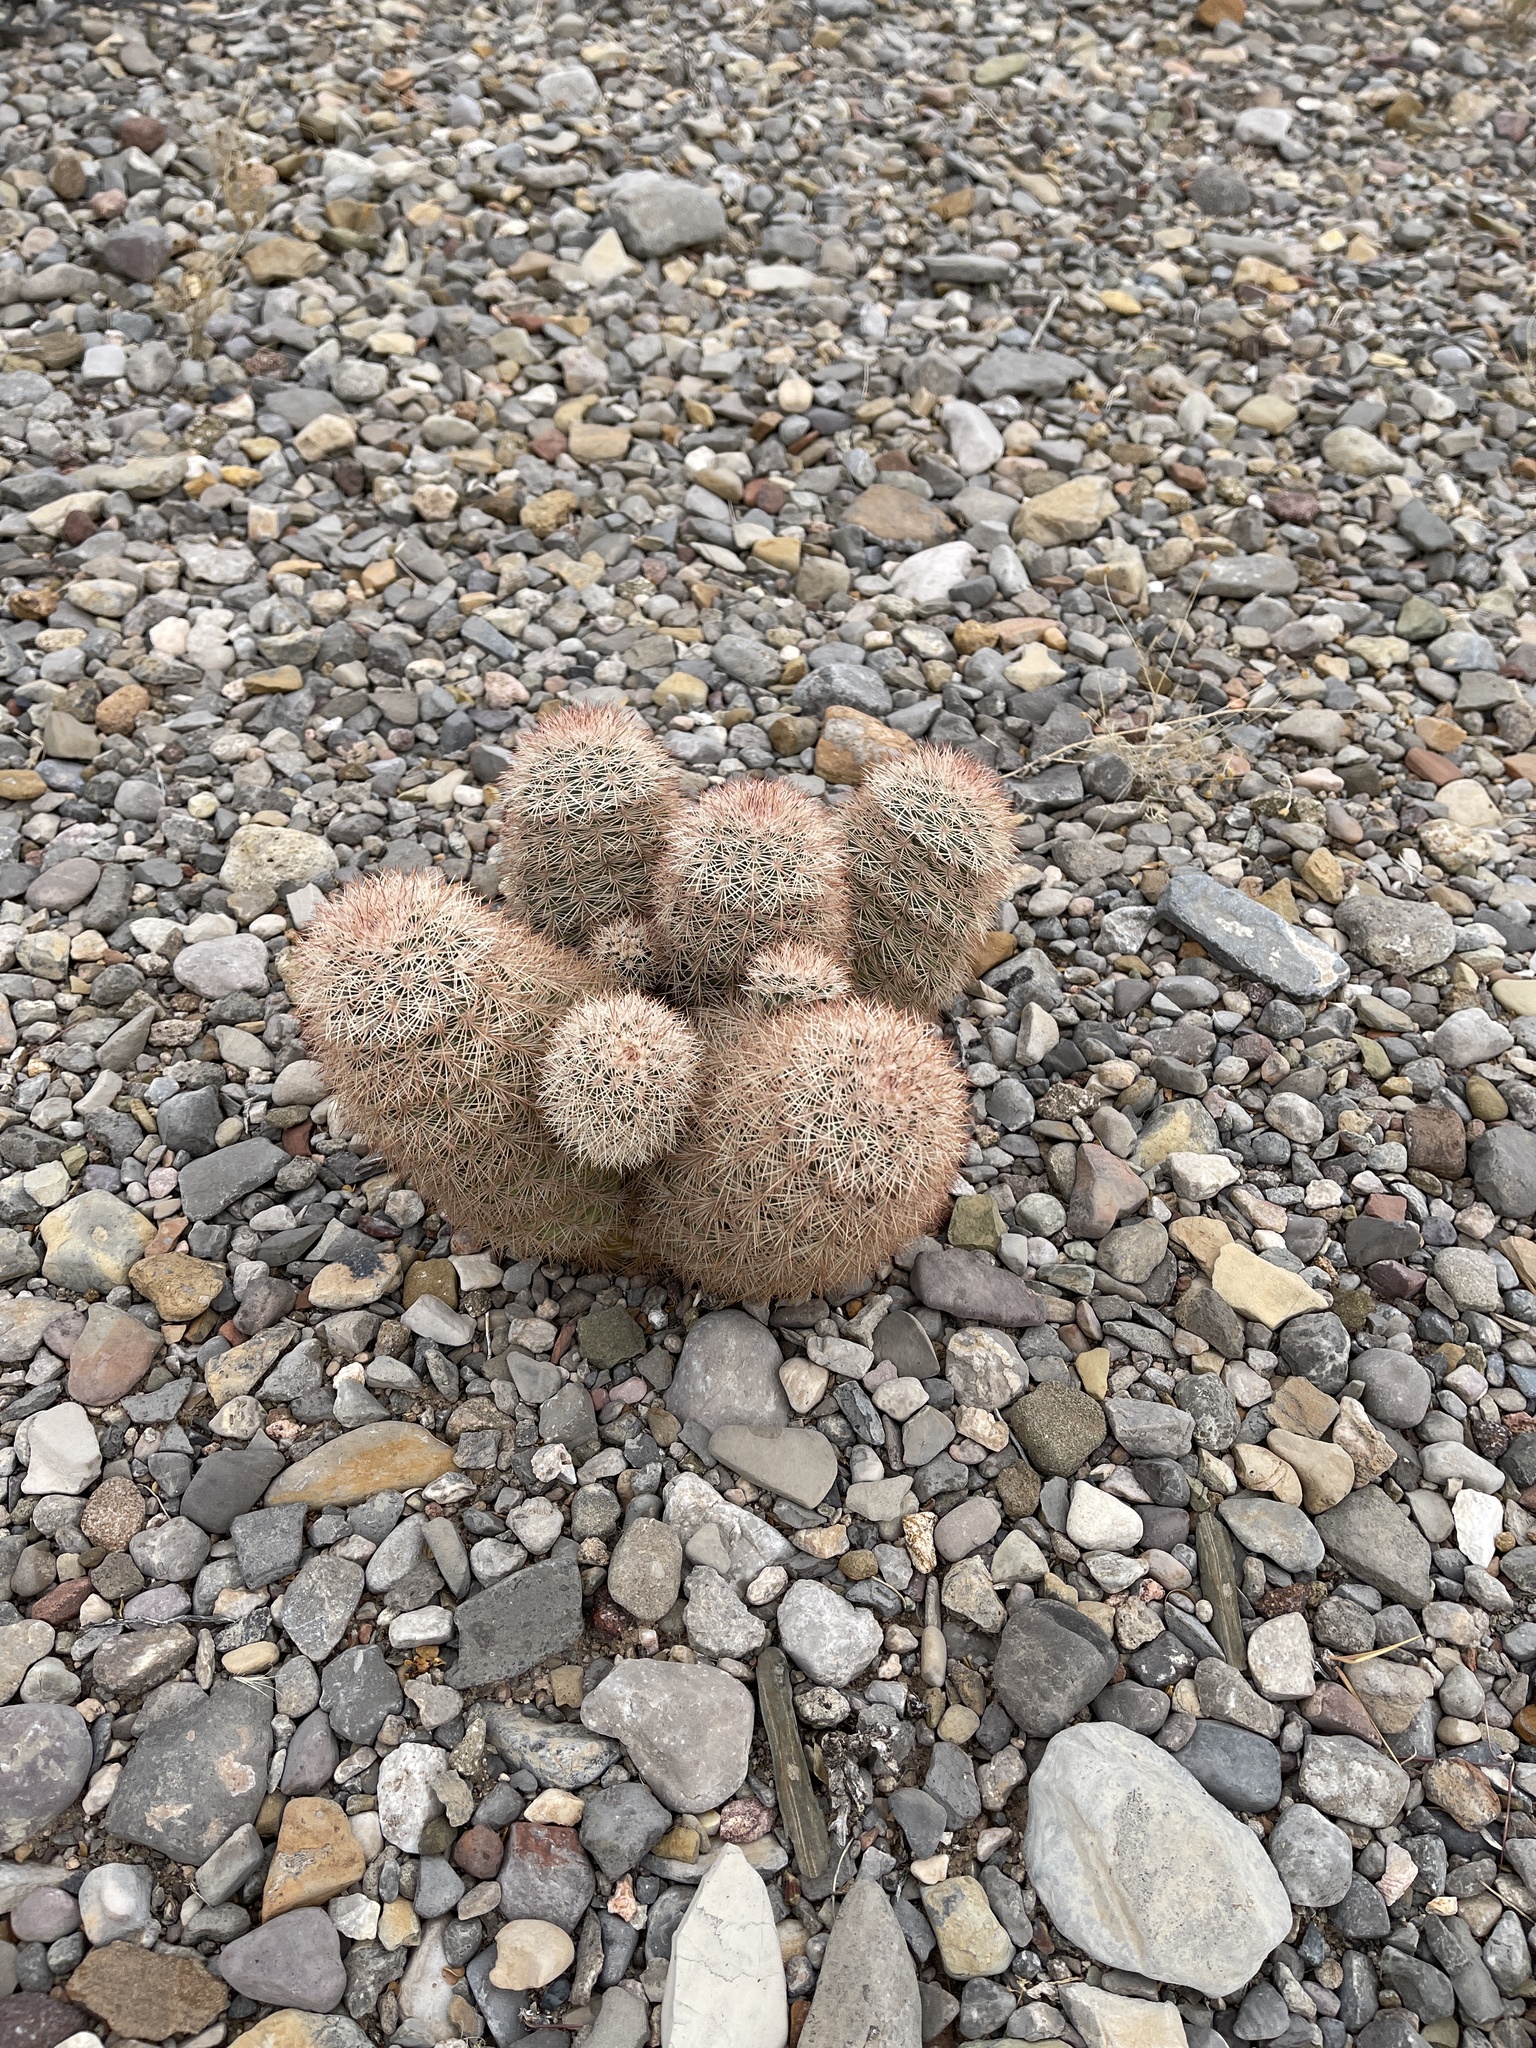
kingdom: Plantae
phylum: Tracheophyta
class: Magnoliopsida
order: Caryophyllales
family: Cactaceae
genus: Echinocereus
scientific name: Echinocereus dasyacanthus
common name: Spiny hedgehog cactus
